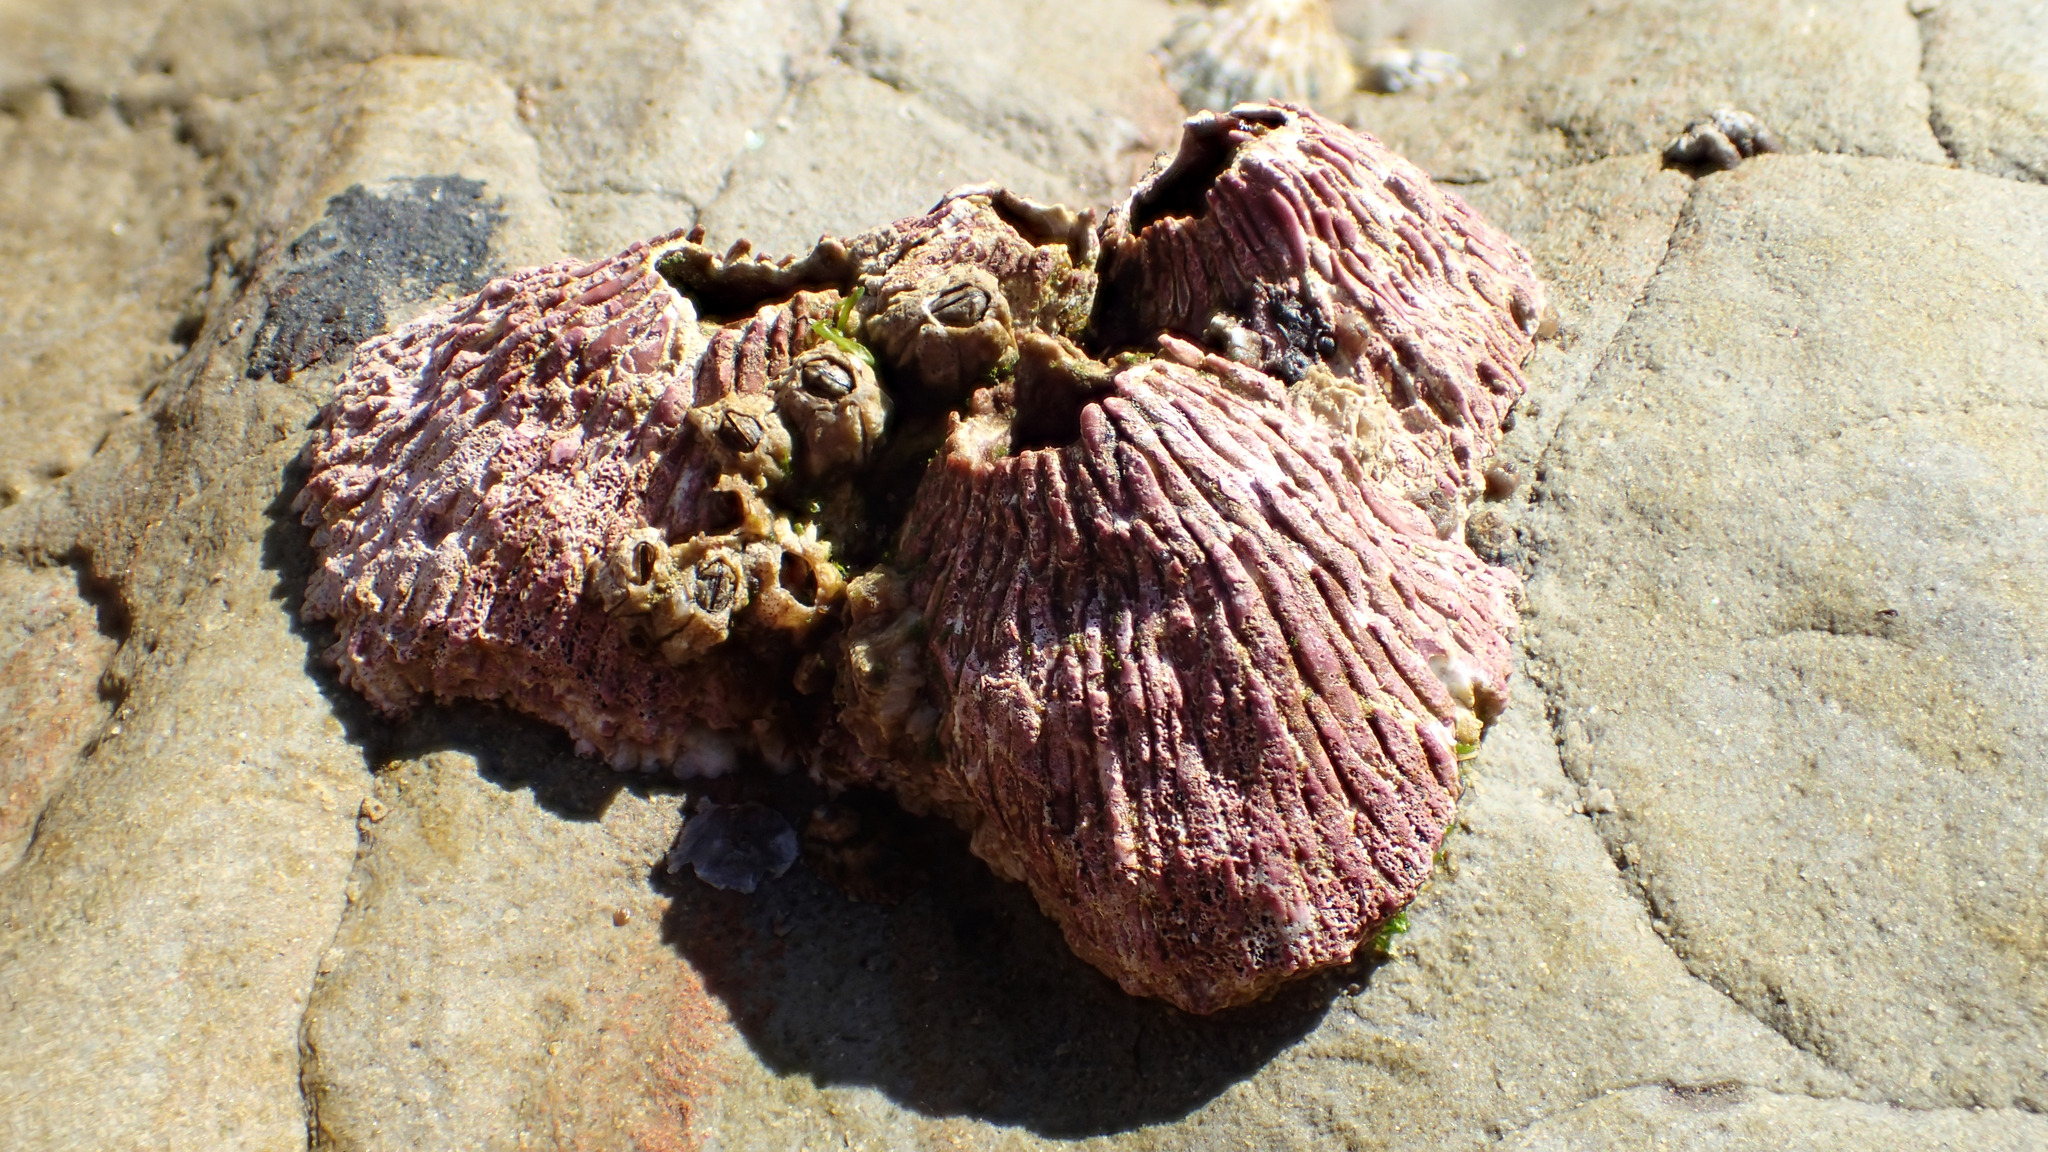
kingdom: Animalia
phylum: Arthropoda
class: Maxillopoda
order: Sessilia
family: Tetraclitidae
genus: Tetraclita
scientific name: Tetraclita rubescens
